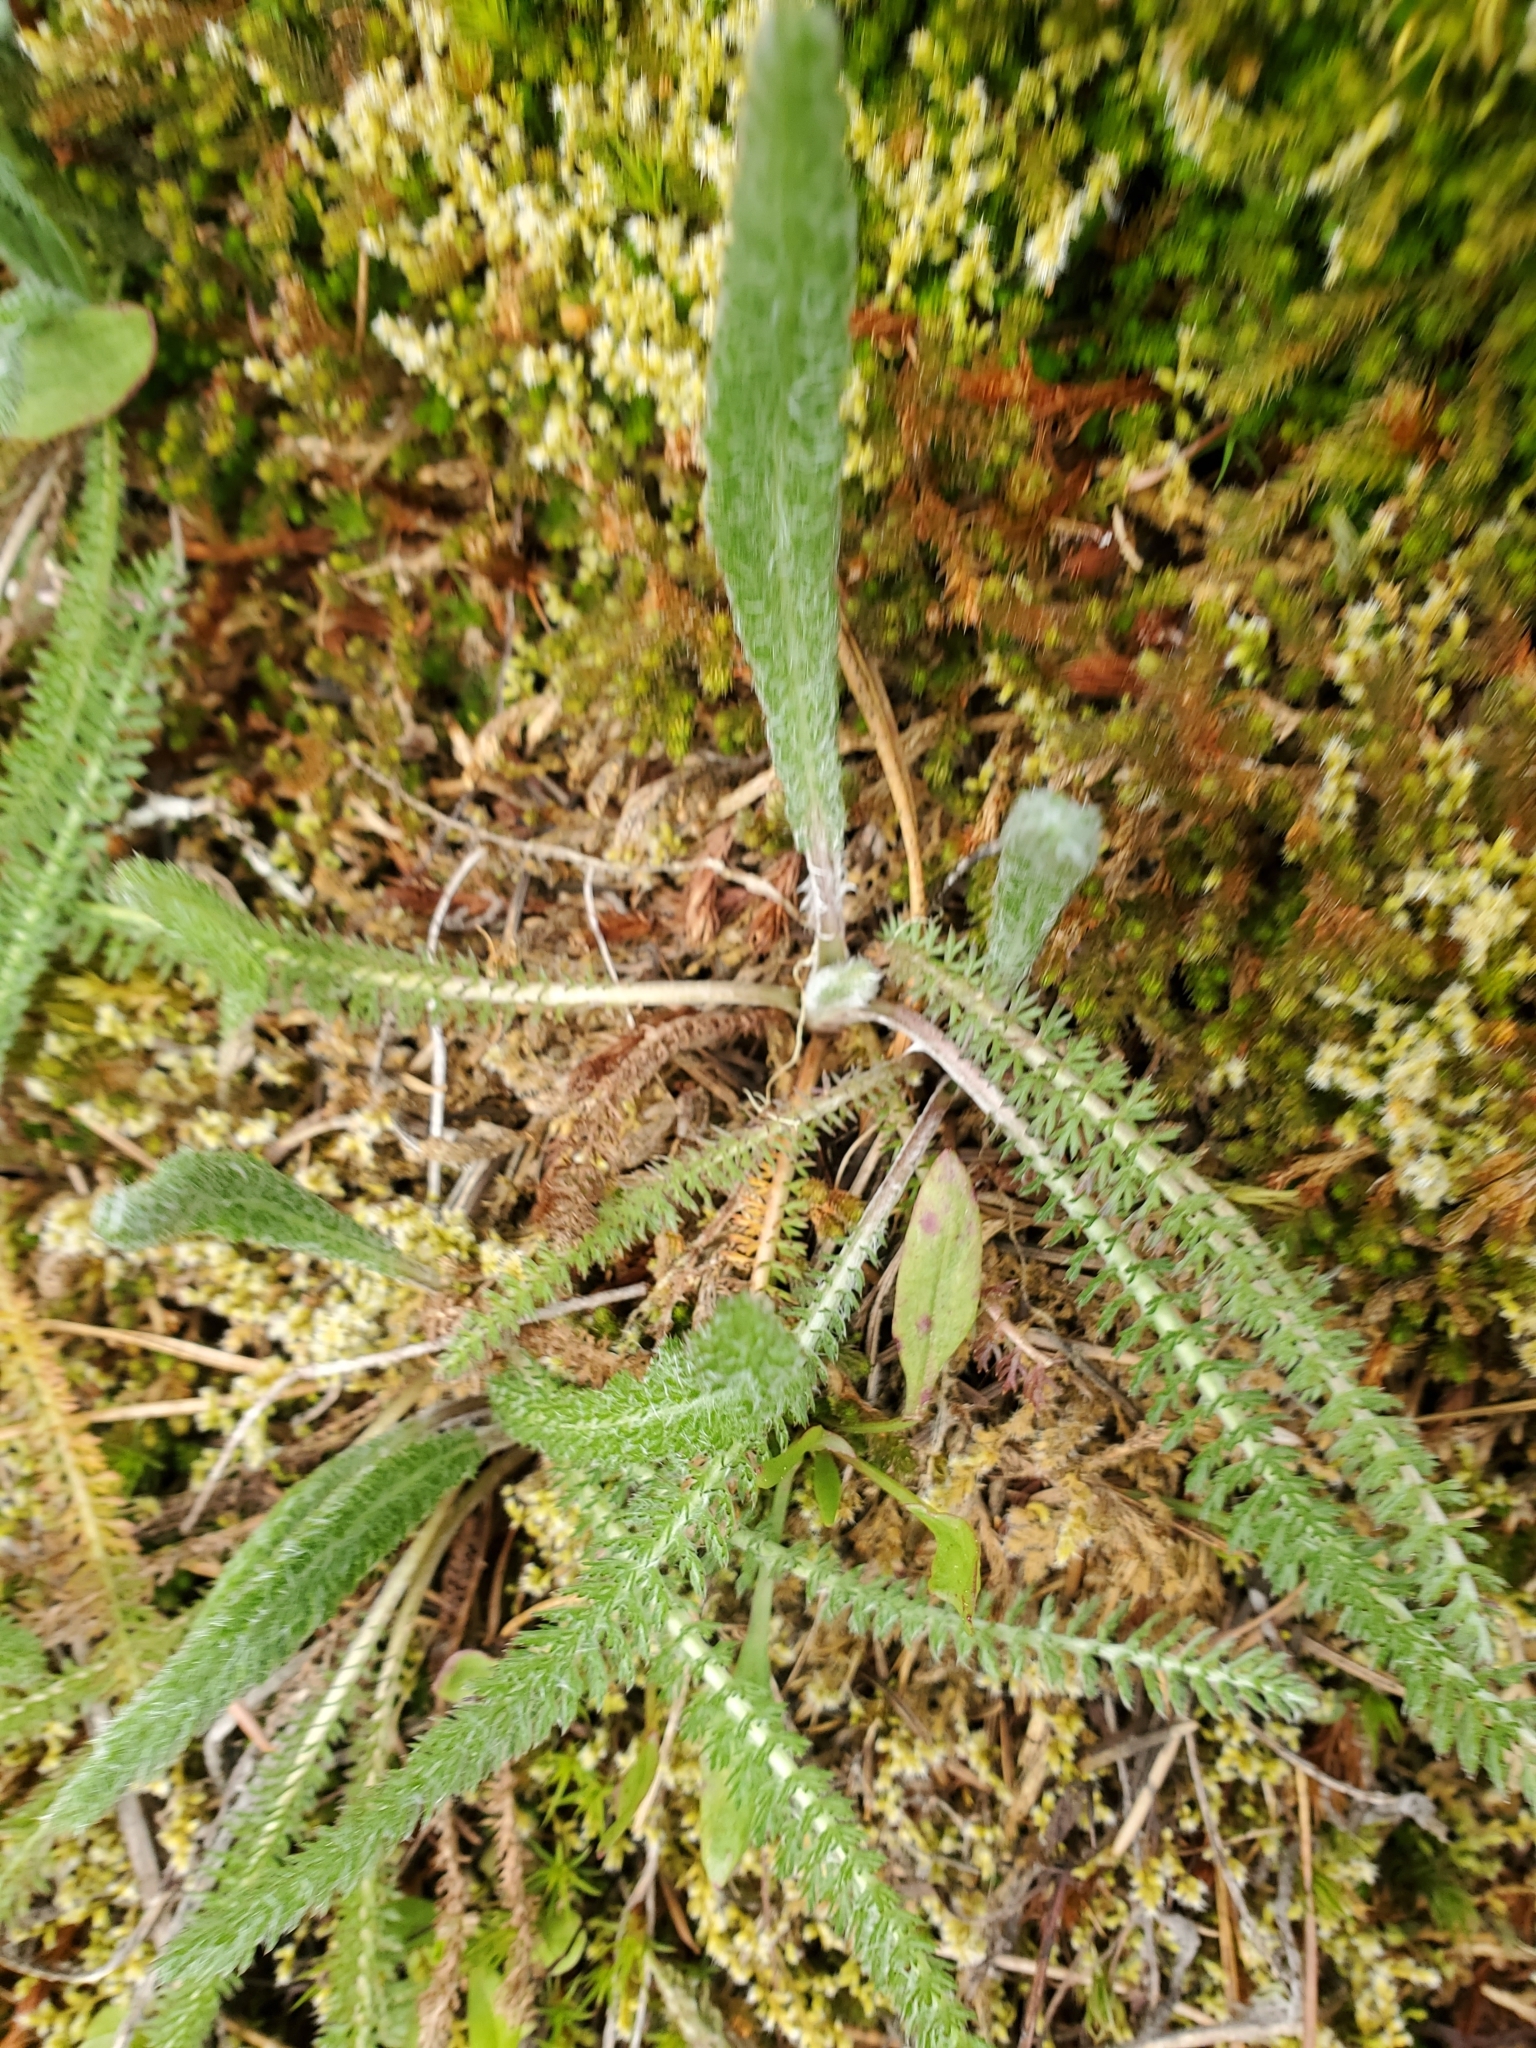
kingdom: Plantae
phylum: Tracheophyta
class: Magnoliopsida
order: Asterales
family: Asteraceae
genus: Achillea
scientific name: Achillea millefolium
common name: Yarrow
